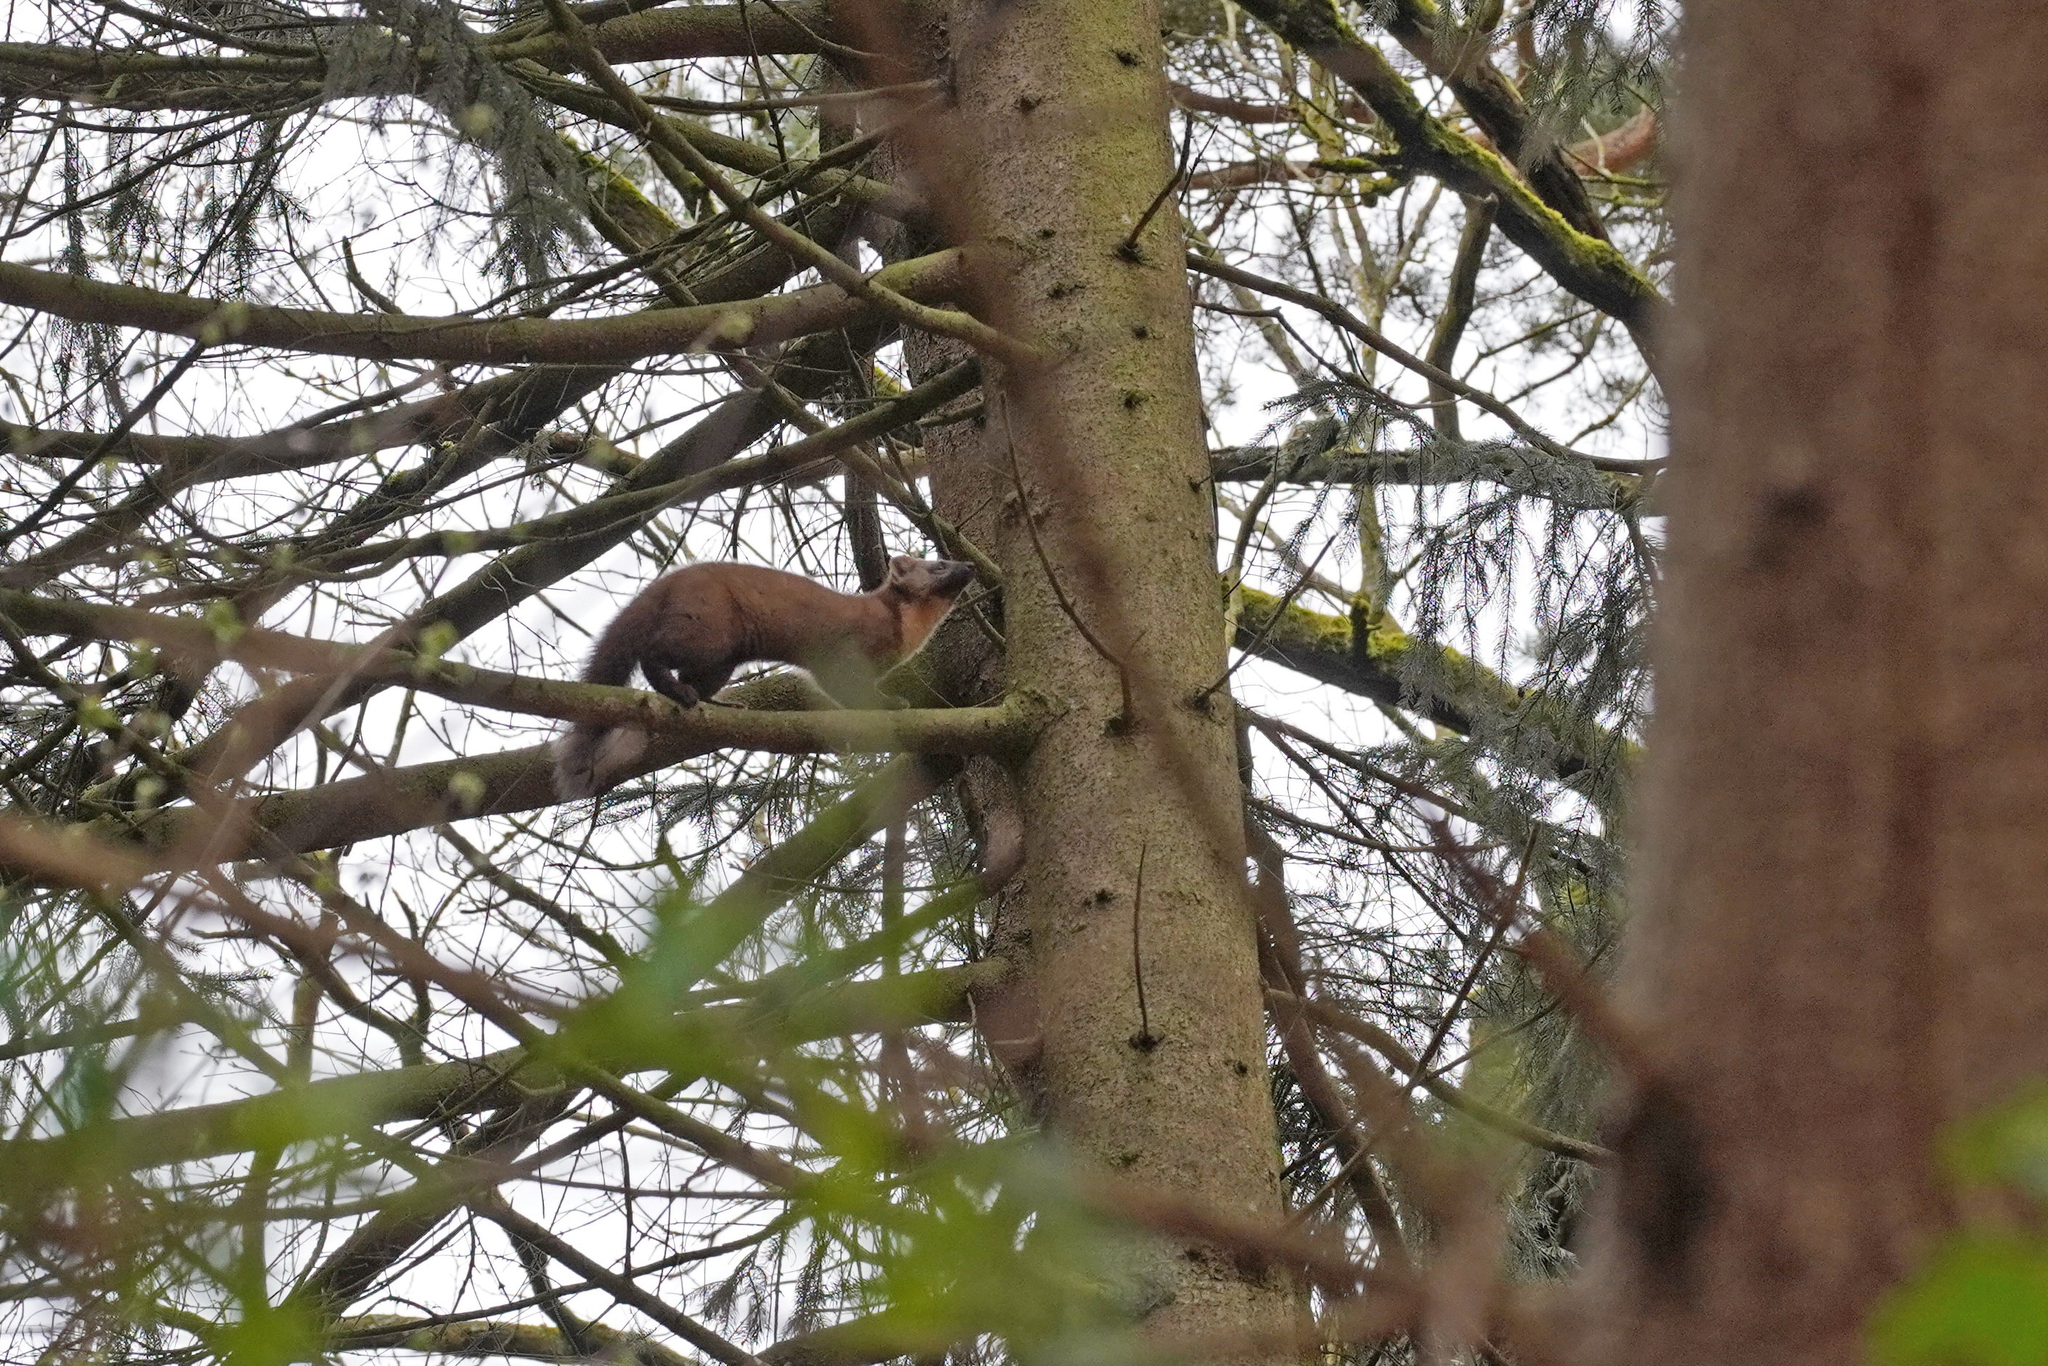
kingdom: Animalia
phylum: Chordata
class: Mammalia
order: Carnivora
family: Mustelidae
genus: Martes
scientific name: Martes martes
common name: European pine marten
